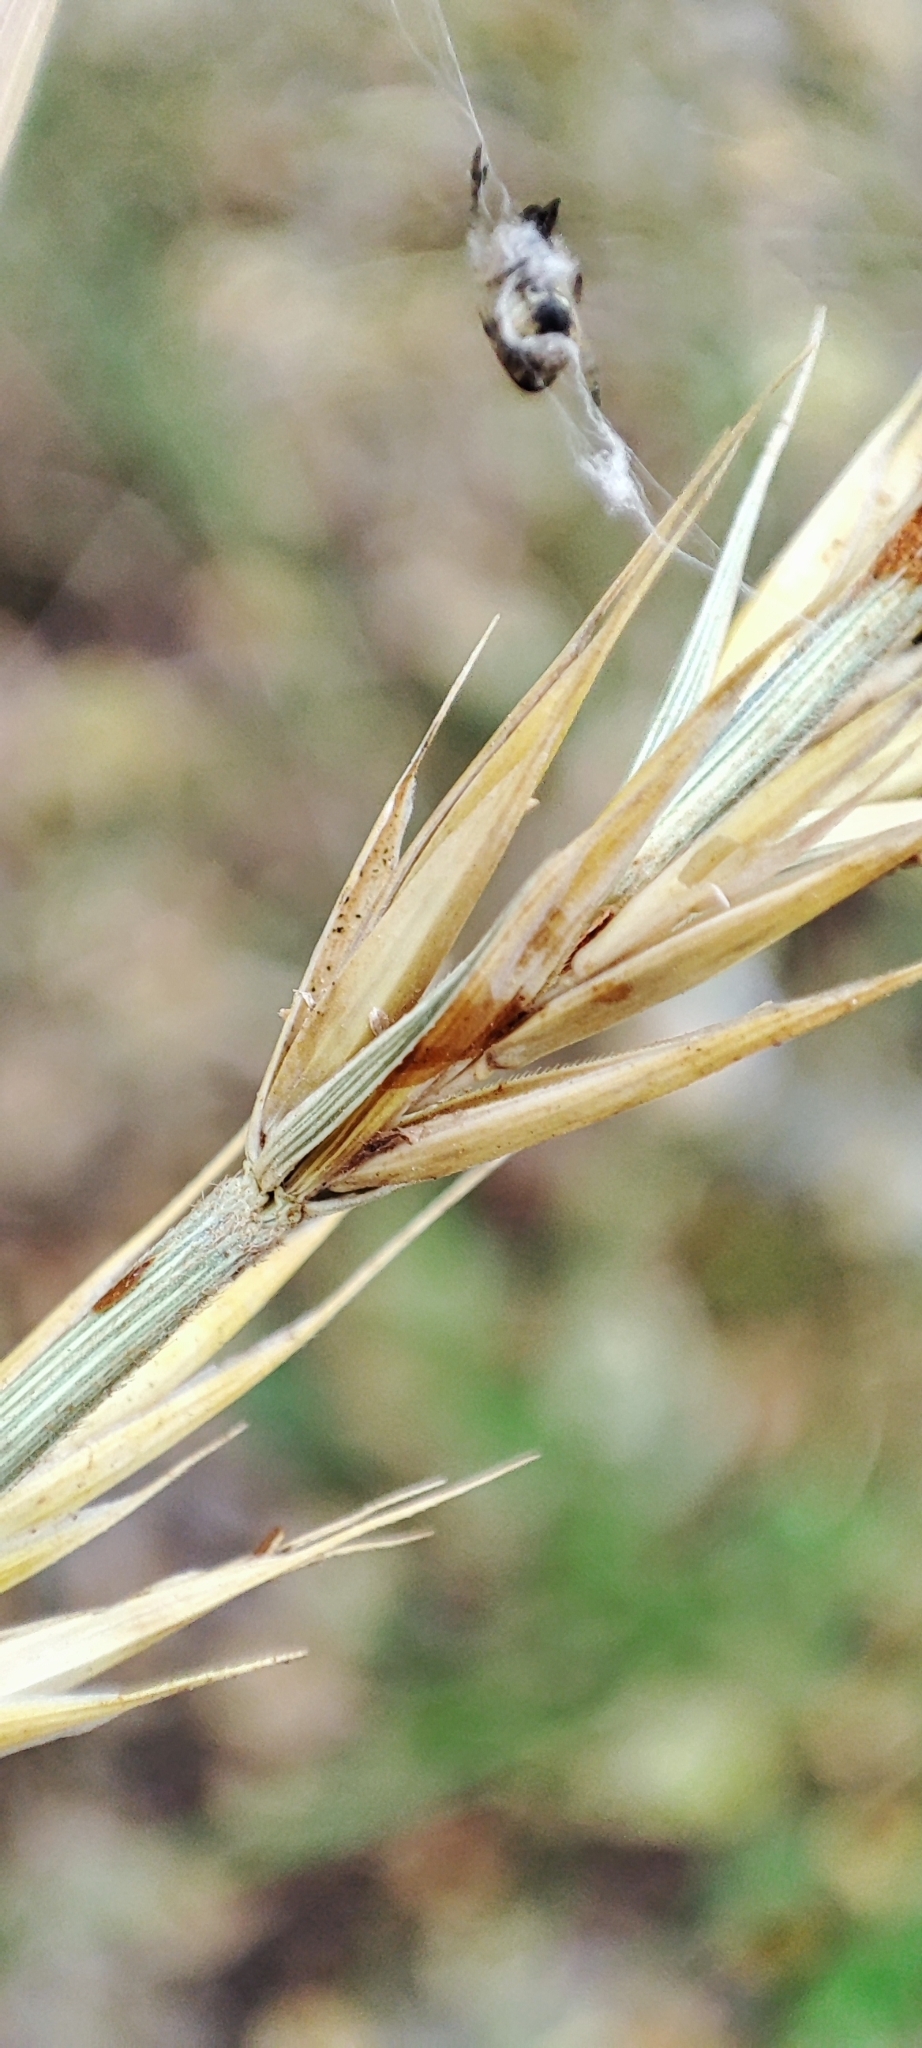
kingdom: Plantae
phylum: Tracheophyta
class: Liliopsida
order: Poales
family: Poaceae
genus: Elymus
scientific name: Elymus repens
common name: Quackgrass
